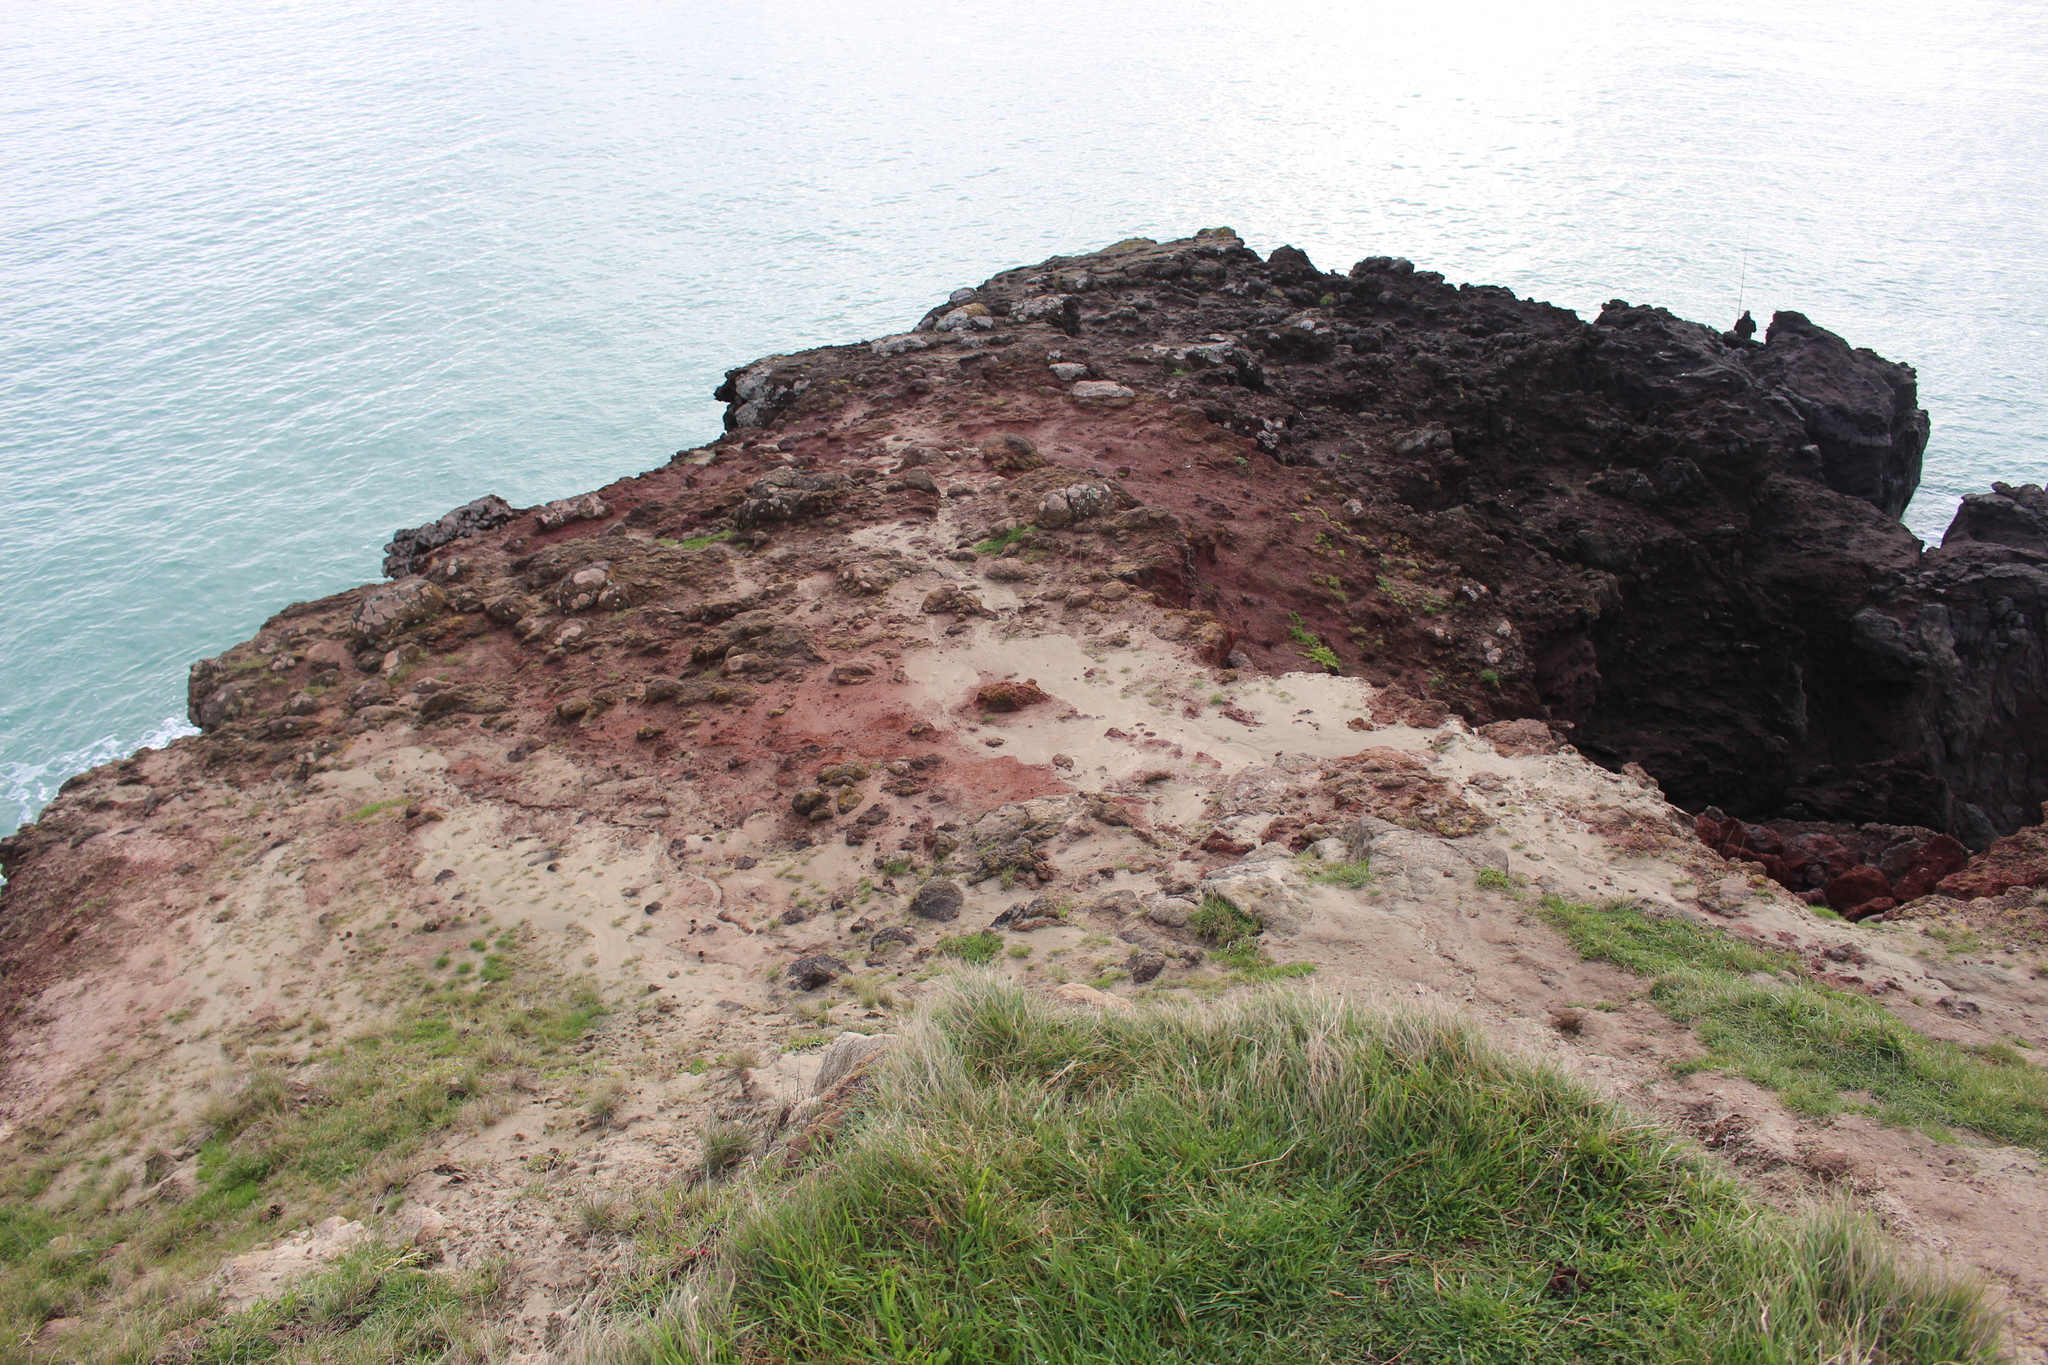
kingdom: Plantae
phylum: Tracheophyta
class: Magnoliopsida
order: Asterales
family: Asteraceae
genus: Cotula
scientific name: Cotula australis
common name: Australian waterbuttons
